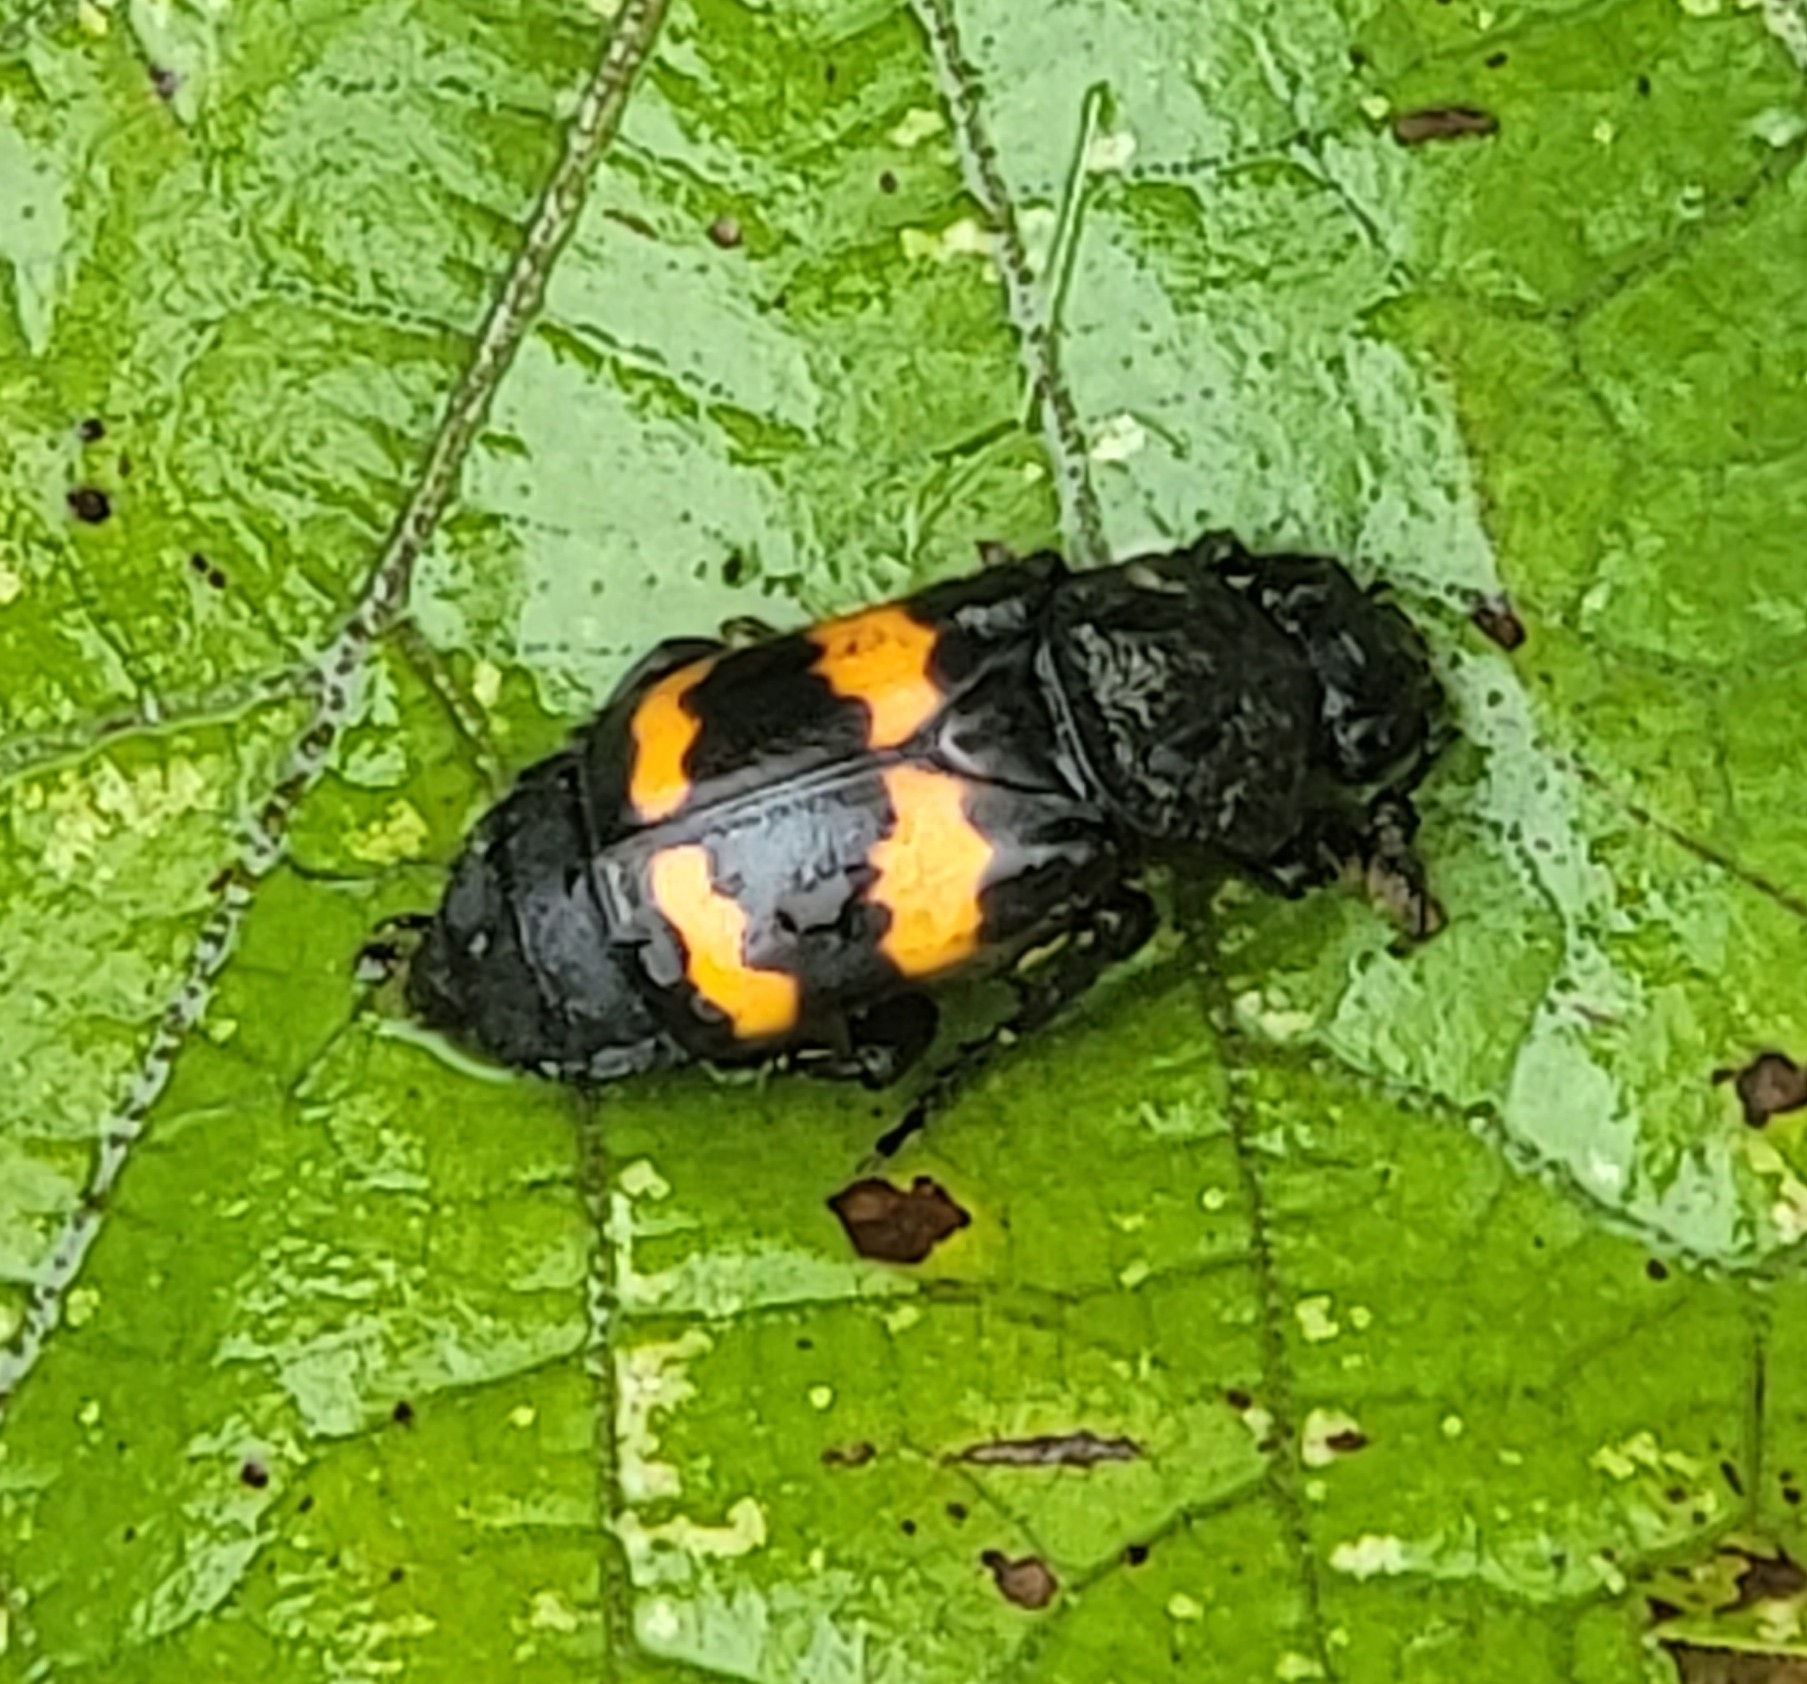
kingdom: Animalia
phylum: Arthropoda
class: Insecta
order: Coleoptera
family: Staphylinidae
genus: Nicrophorus
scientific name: Nicrophorus tomentosus
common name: Tomentose burying beetle
